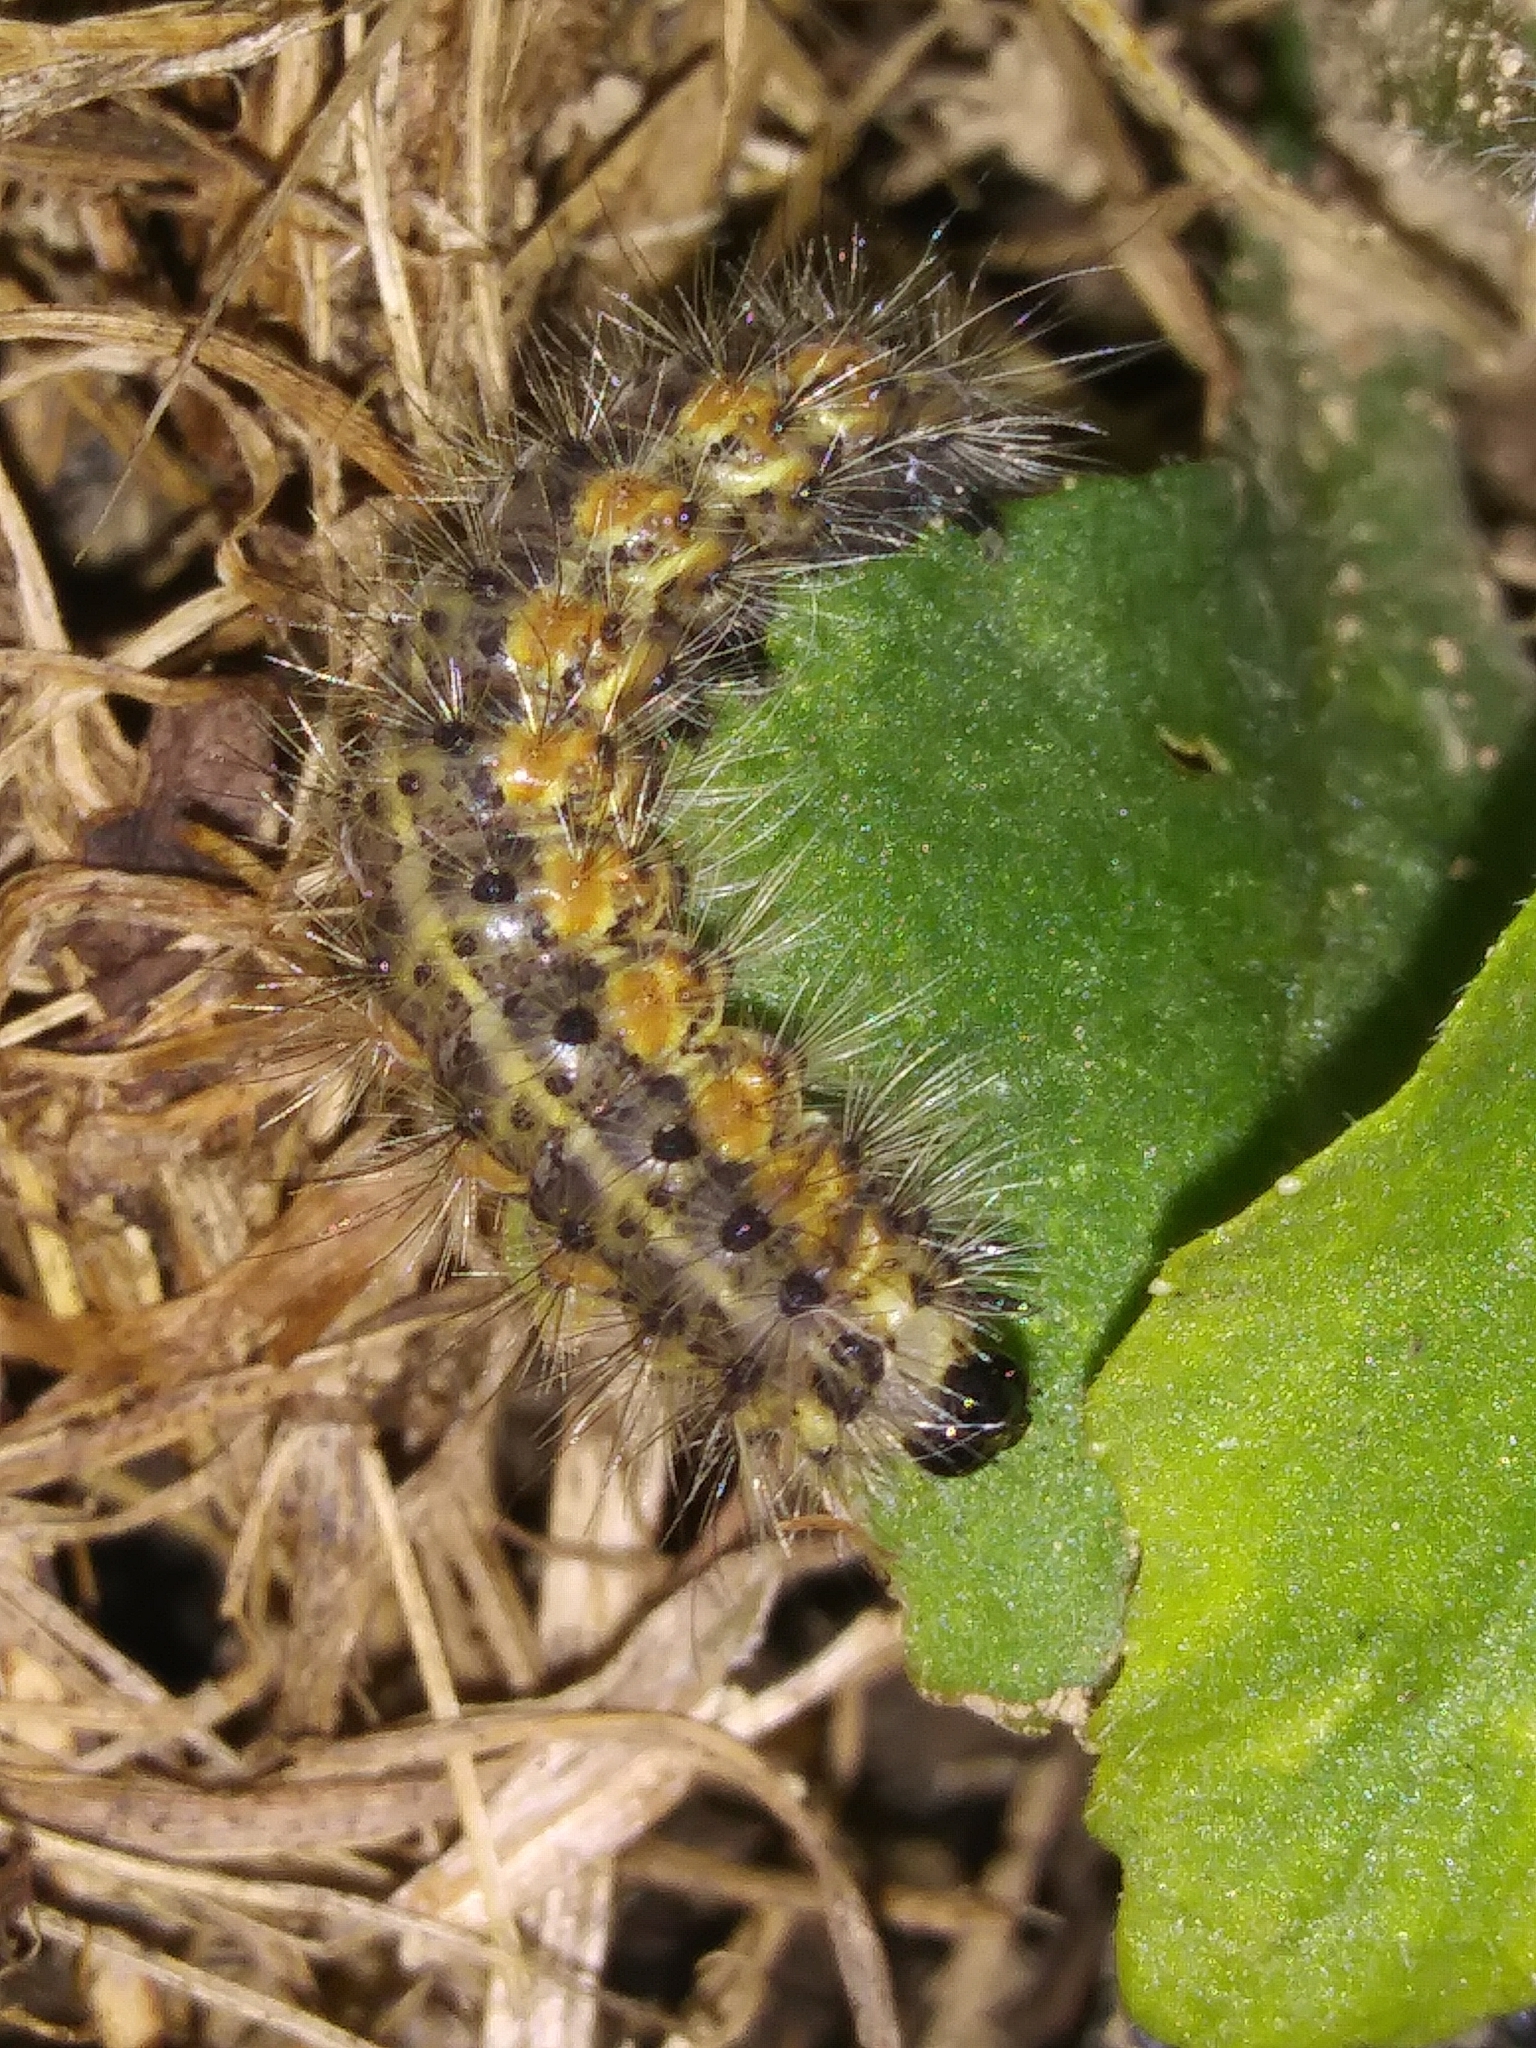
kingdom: Animalia
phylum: Arthropoda
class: Insecta
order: Lepidoptera
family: Erebidae
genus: Hyphantria
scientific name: Hyphantria cunea
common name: American white moth
